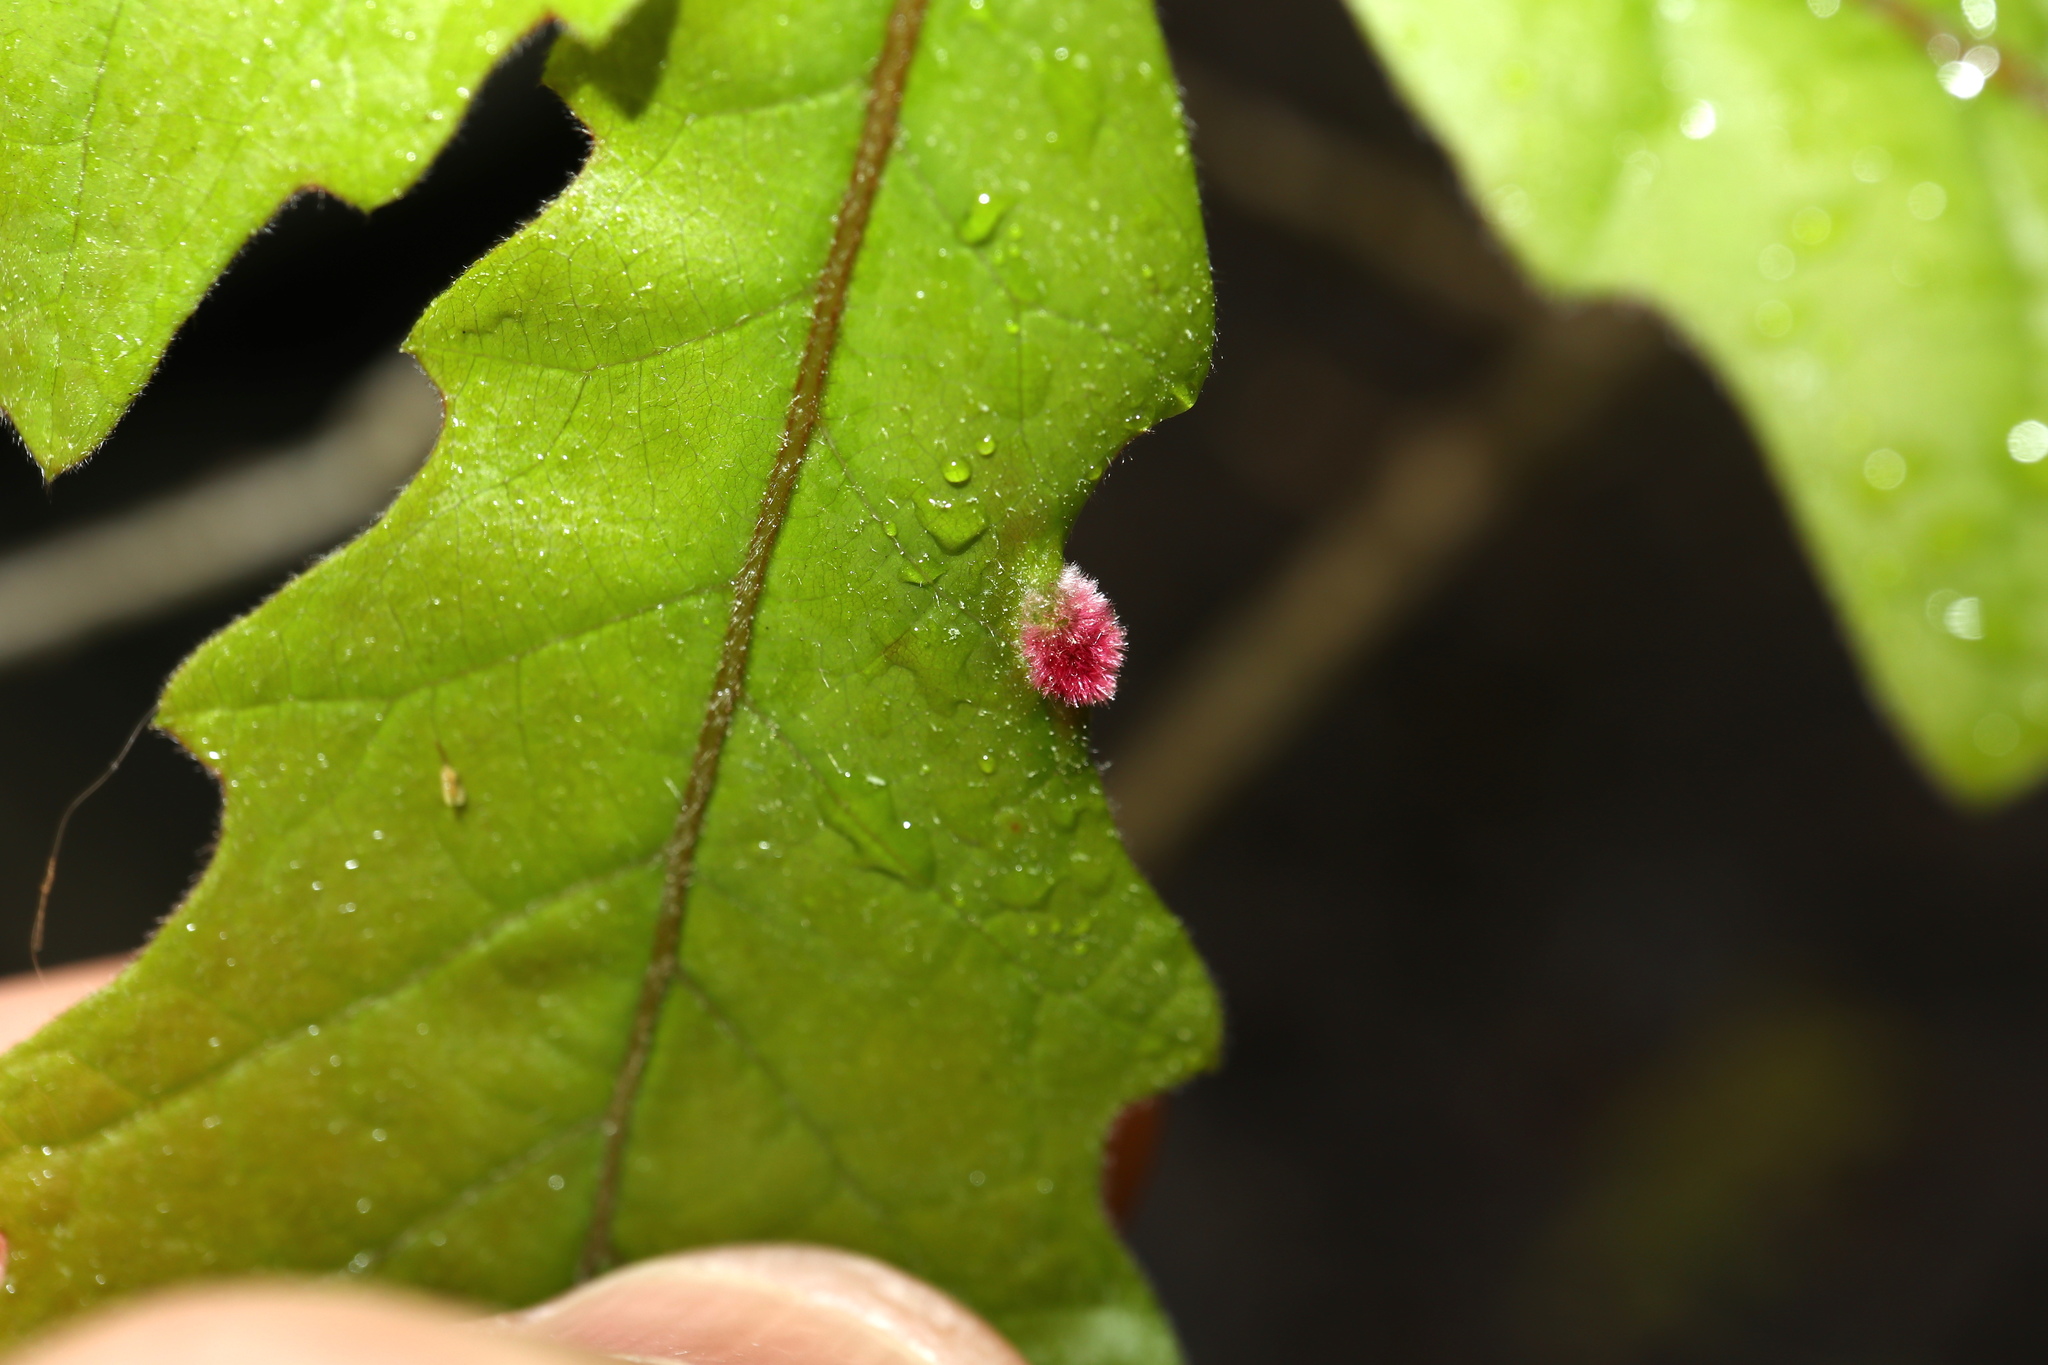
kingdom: Animalia
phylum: Arthropoda
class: Insecta
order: Diptera
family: Cecidomyiidae
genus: Macrodiplosis
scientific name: Macrodiplosis niveipila
